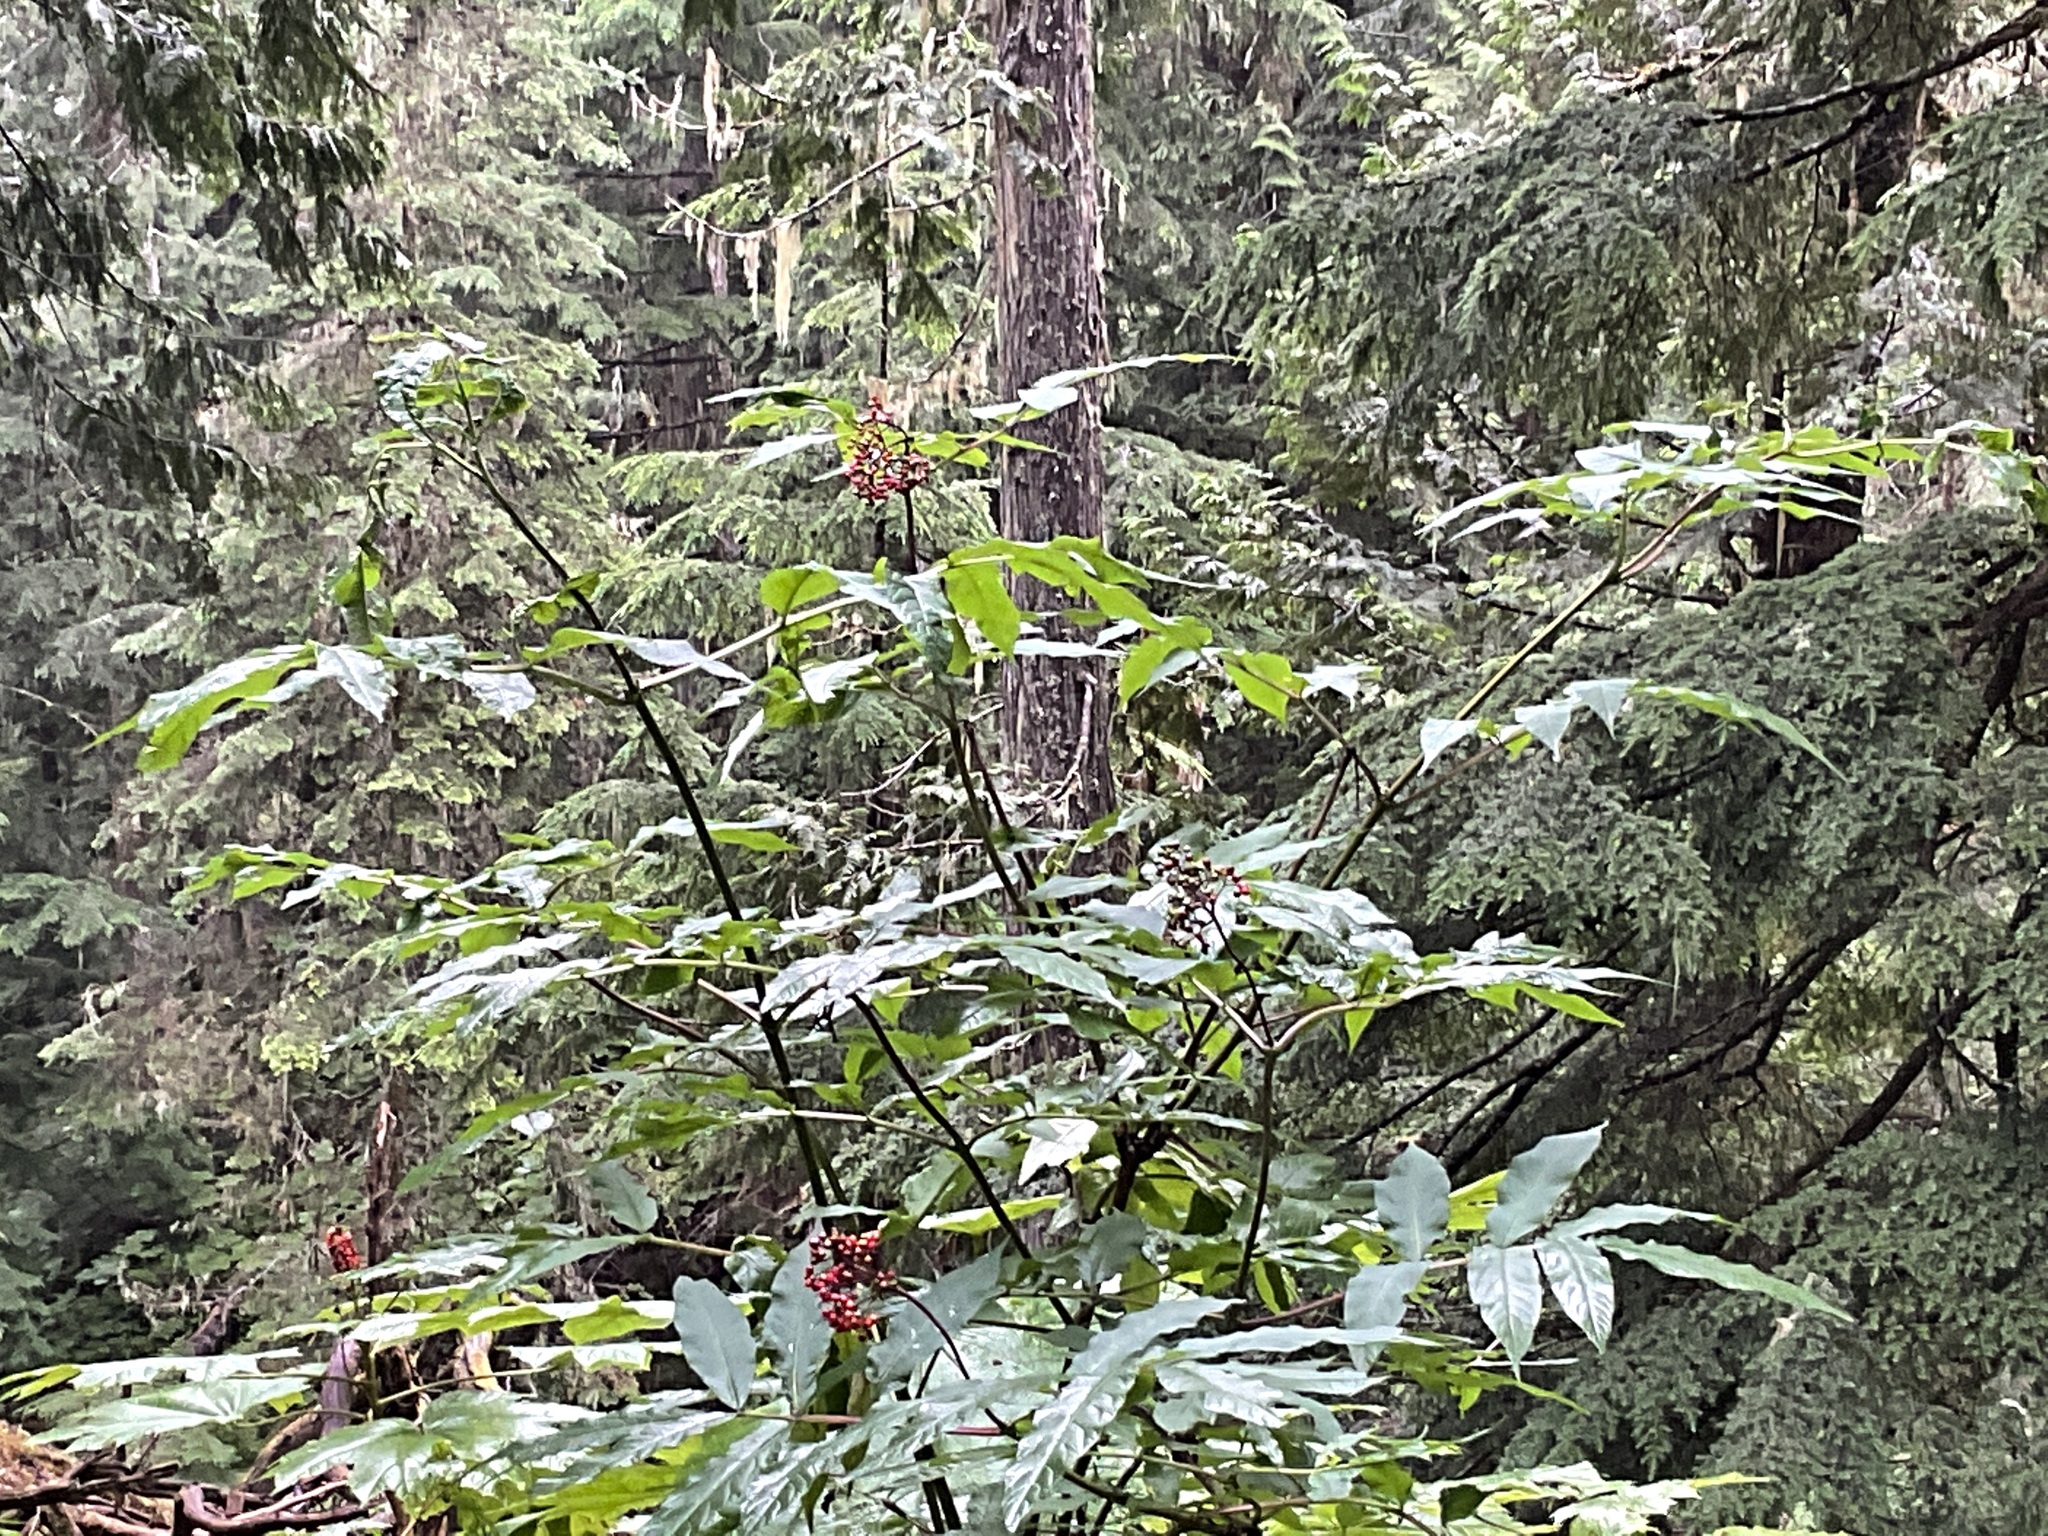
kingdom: Plantae
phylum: Tracheophyta
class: Magnoliopsida
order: Dipsacales
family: Viburnaceae
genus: Sambucus
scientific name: Sambucus racemosa
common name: Red-berried elder
